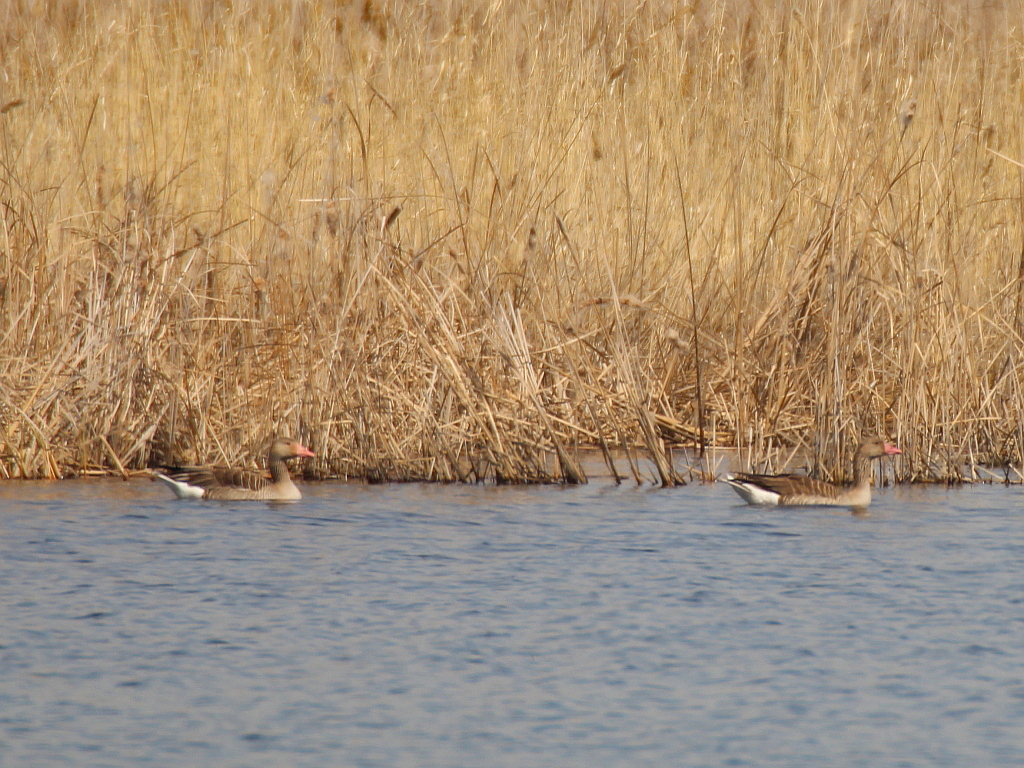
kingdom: Animalia
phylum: Chordata
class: Aves
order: Anseriformes
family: Anatidae
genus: Anser
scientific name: Anser anser
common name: Greylag goose
